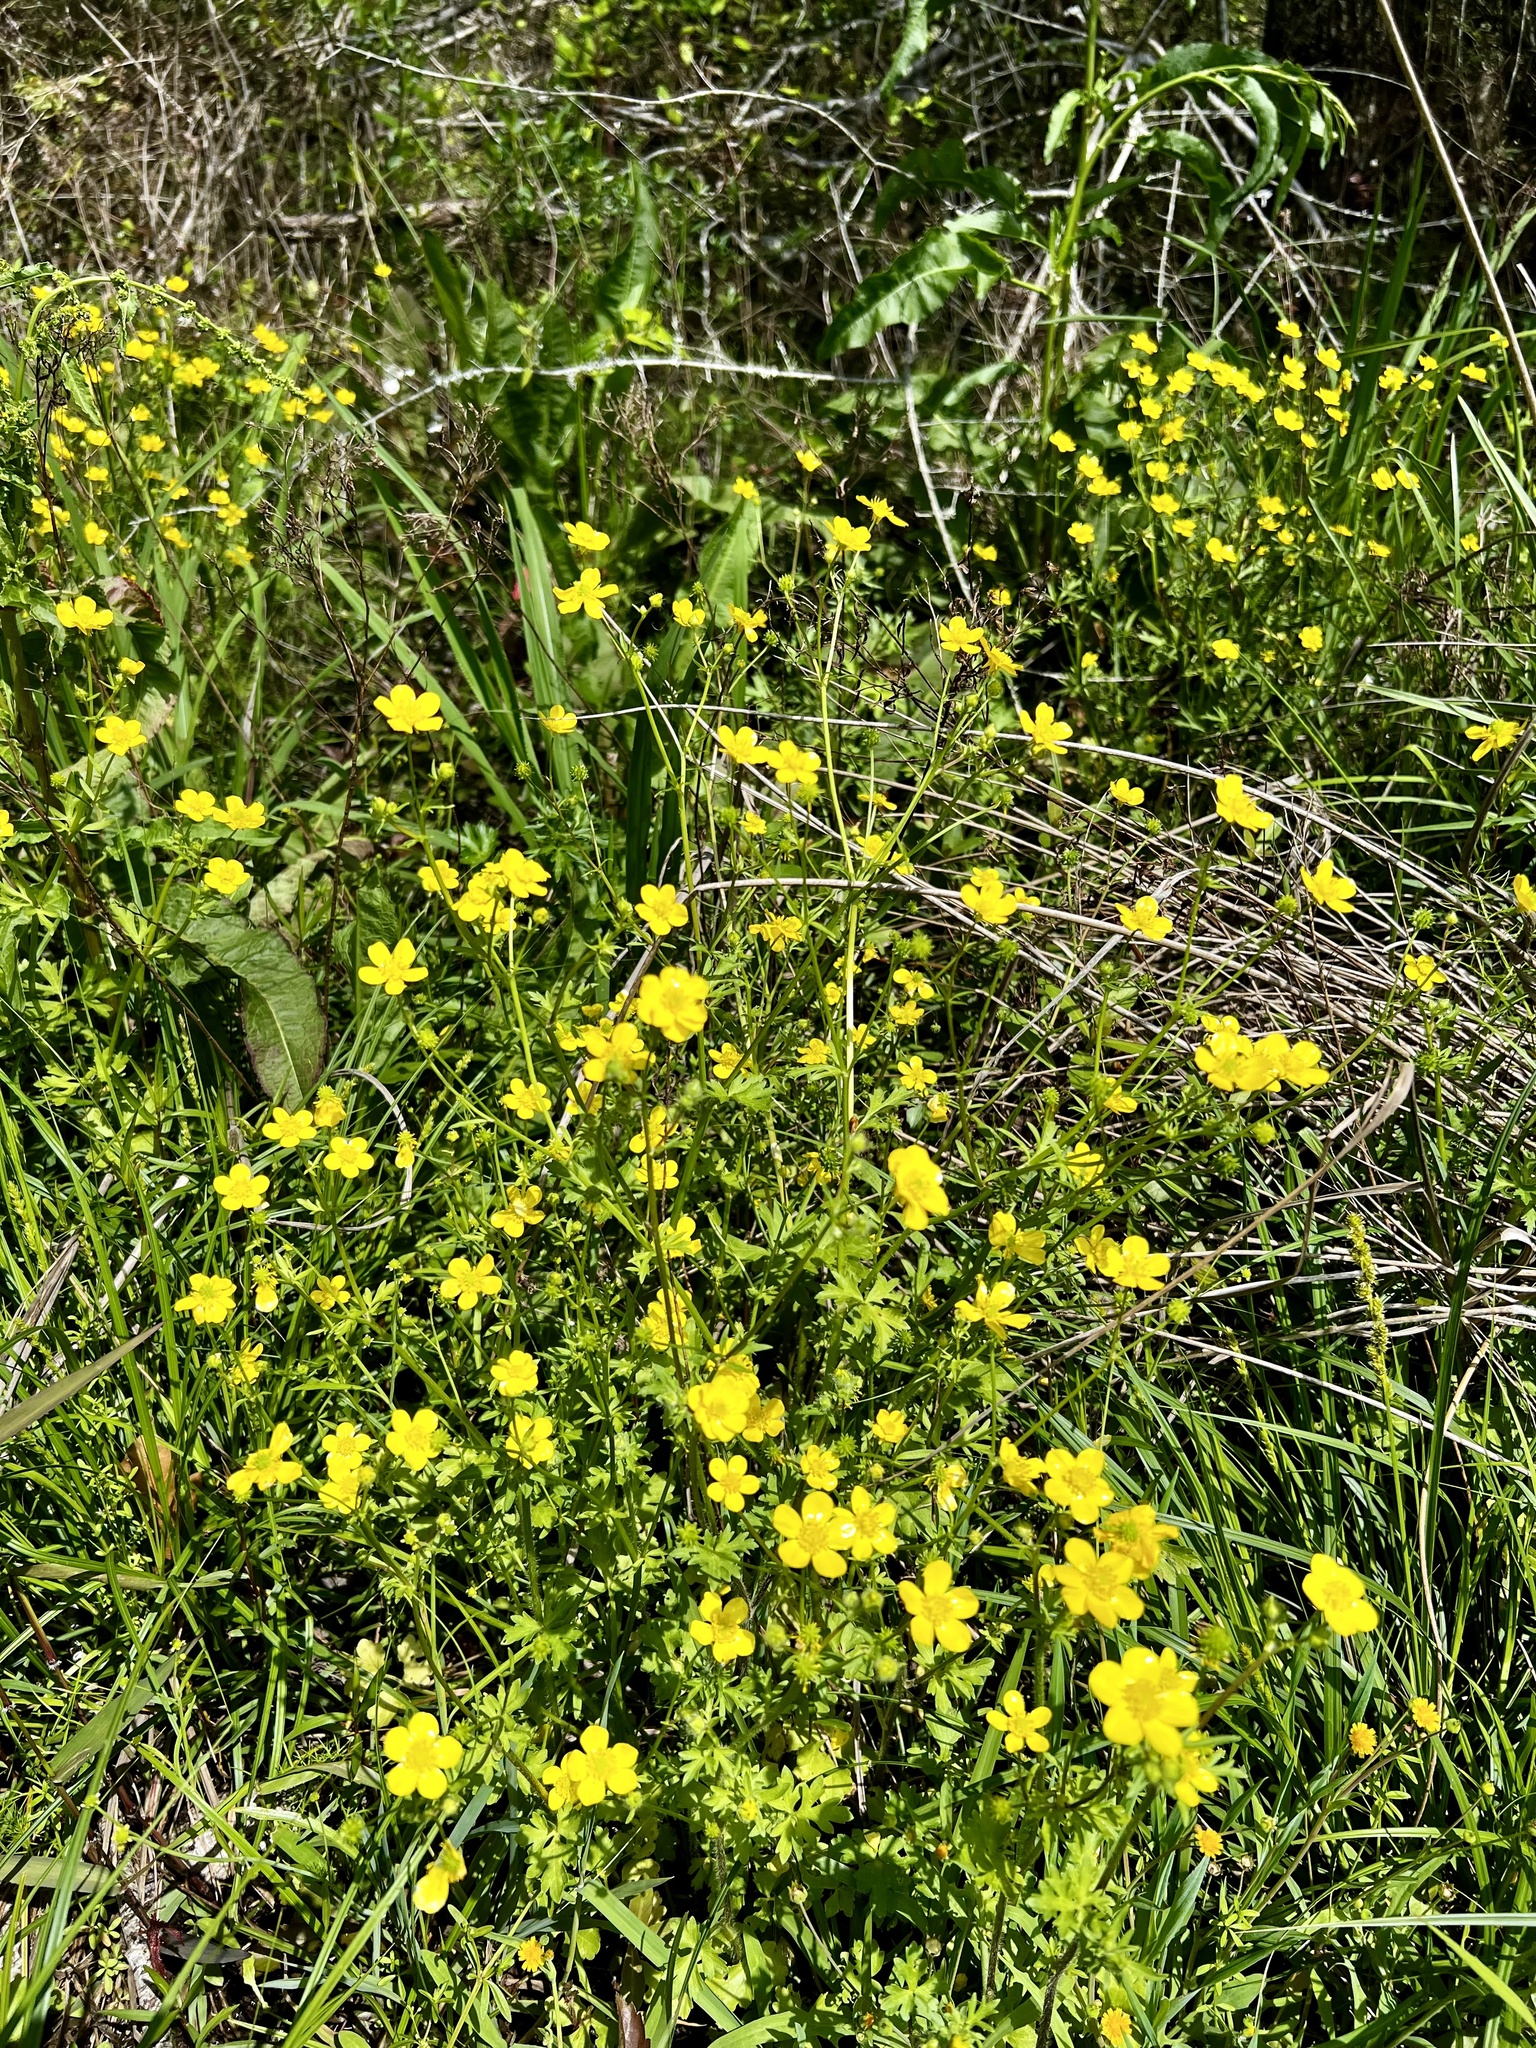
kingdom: Plantae
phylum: Tracheophyta
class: Magnoliopsida
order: Ranunculales
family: Ranunculaceae
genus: Ranunculus
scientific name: Ranunculus sardous
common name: Hairy buttercup
